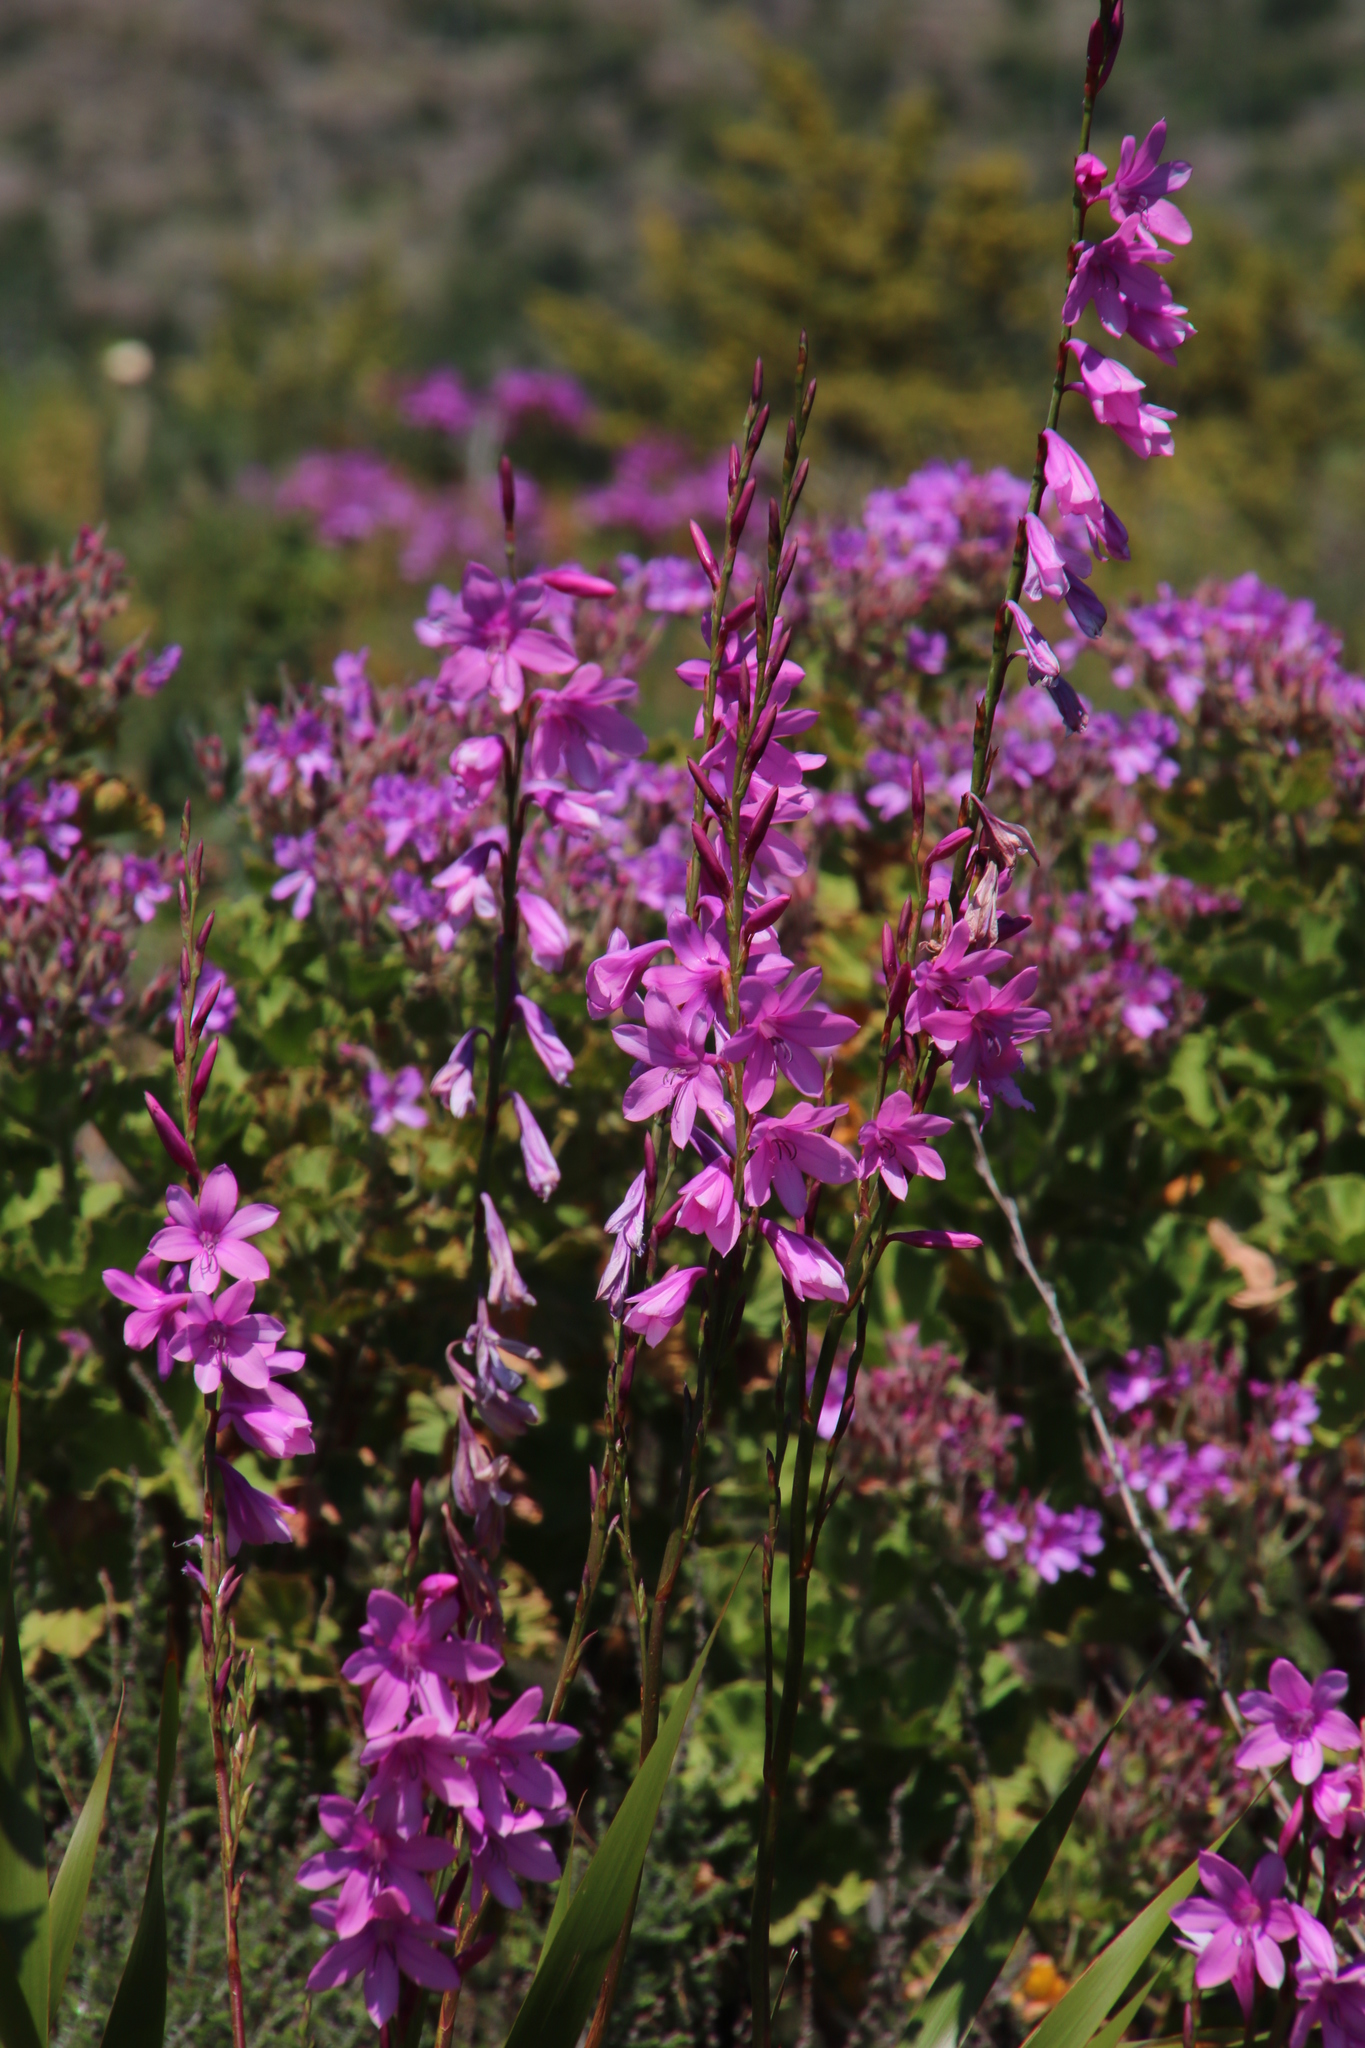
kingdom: Plantae
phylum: Tracheophyta
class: Liliopsida
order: Asparagales
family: Iridaceae
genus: Watsonia
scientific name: Watsonia borbonica
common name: Bugle-lily
